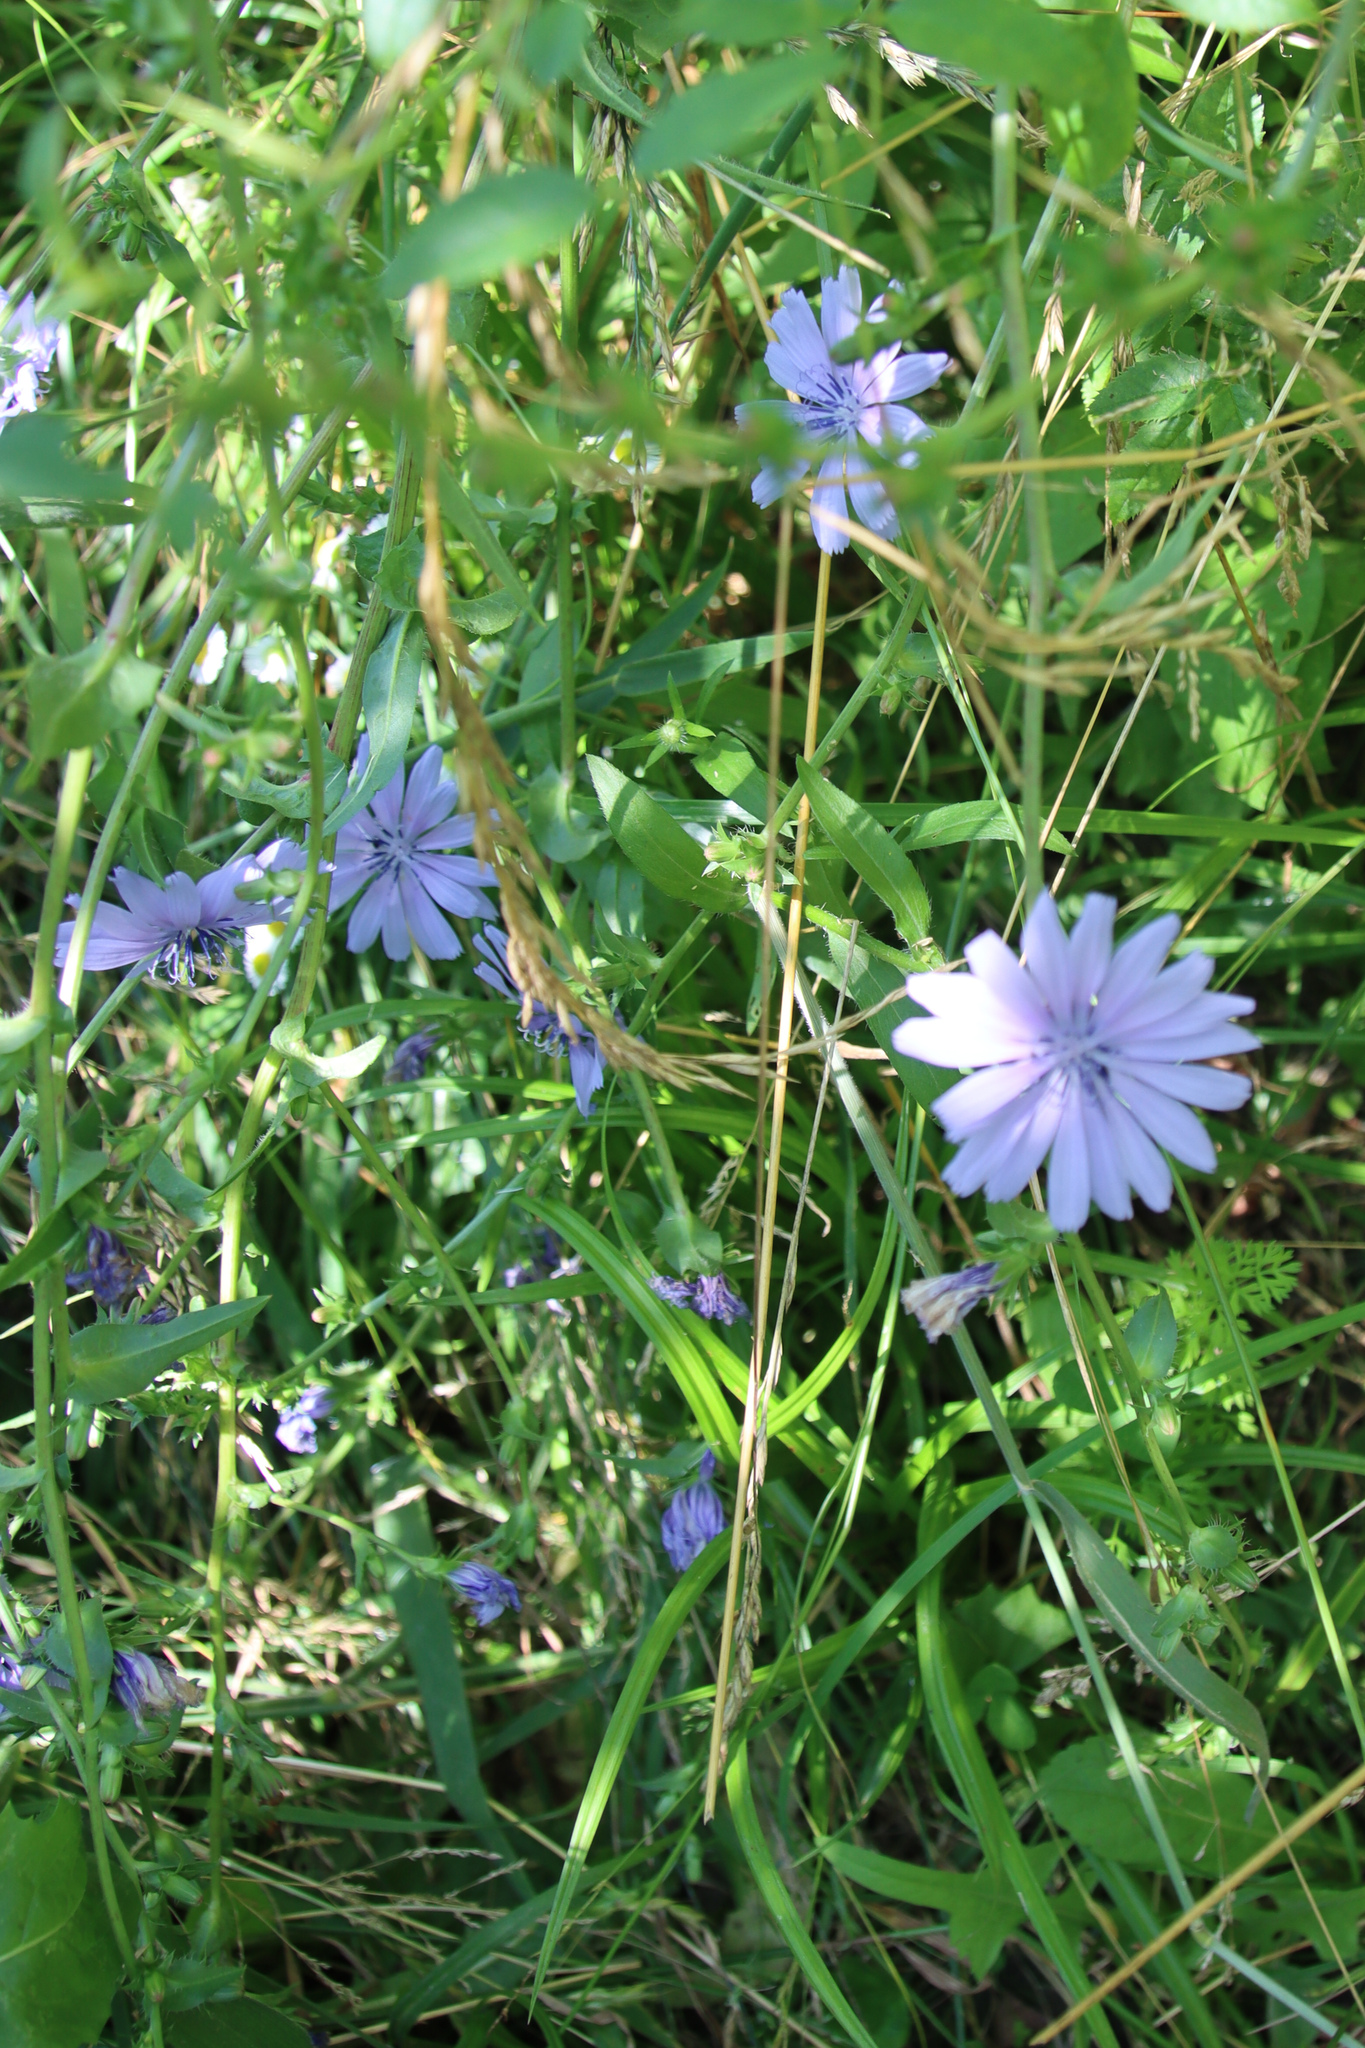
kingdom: Plantae
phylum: Tracheophyta
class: Magnoliopsida
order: Asterales
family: Asteraceae
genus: Cichorium
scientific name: Cichorium intybus
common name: Chicory
